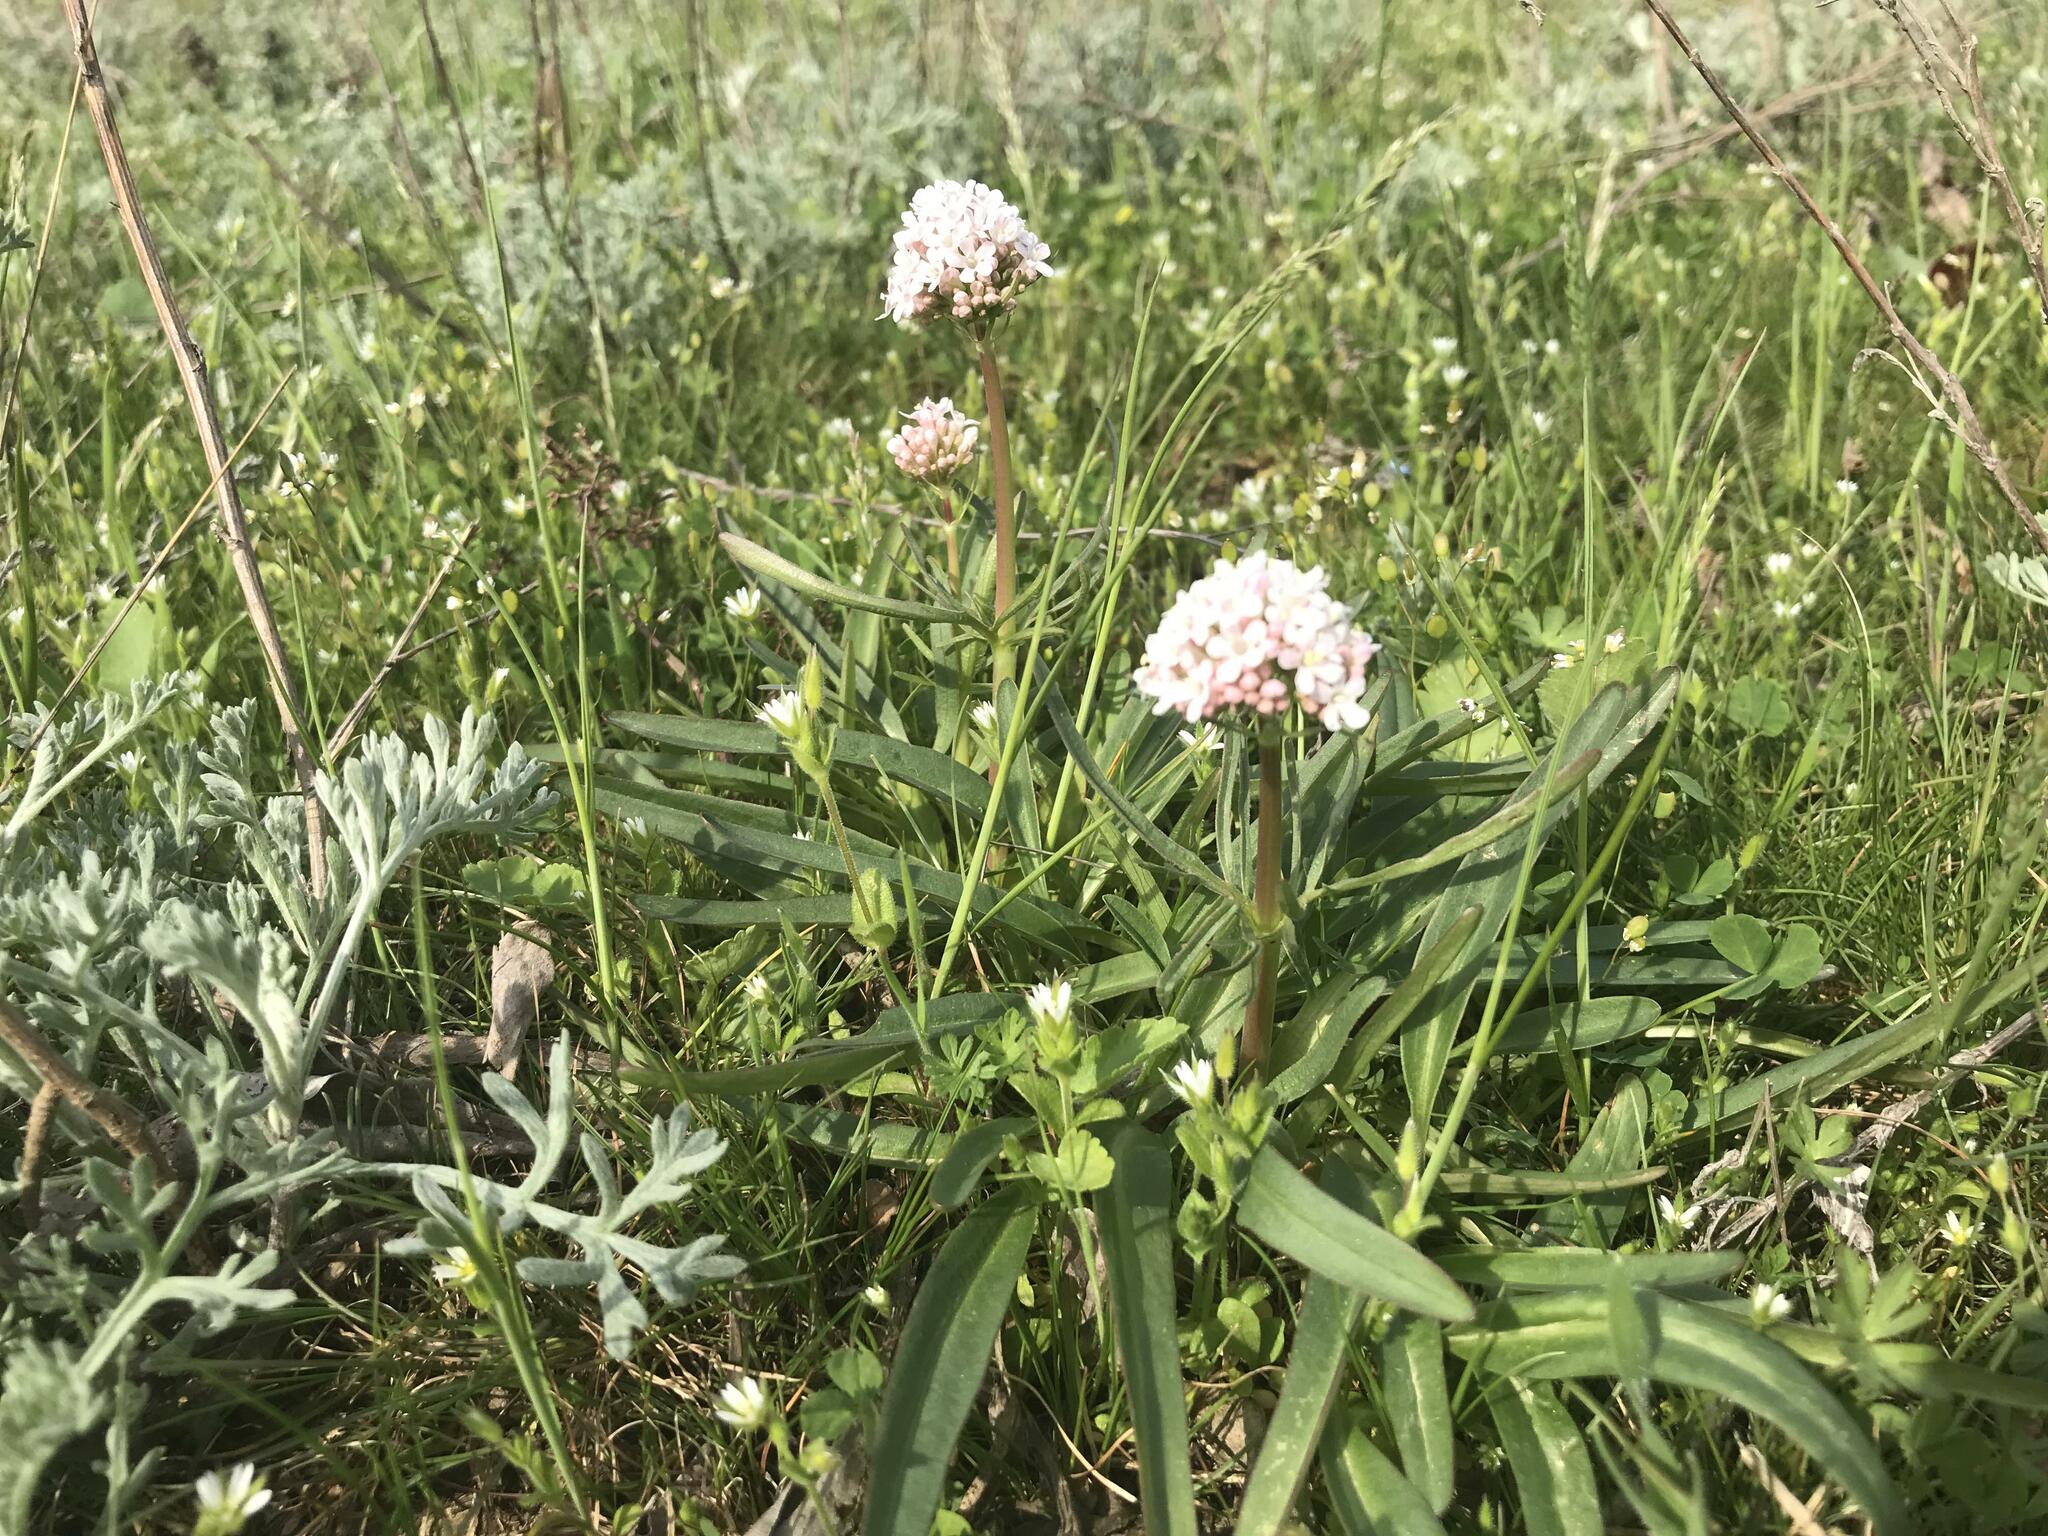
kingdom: Plantae
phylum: Tracheophyta
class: Magnoliopsida
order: Dipsacales
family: Caprifoliaceae
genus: Valeriana
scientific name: Valeriana tuberosa
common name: Tuberous valerian
